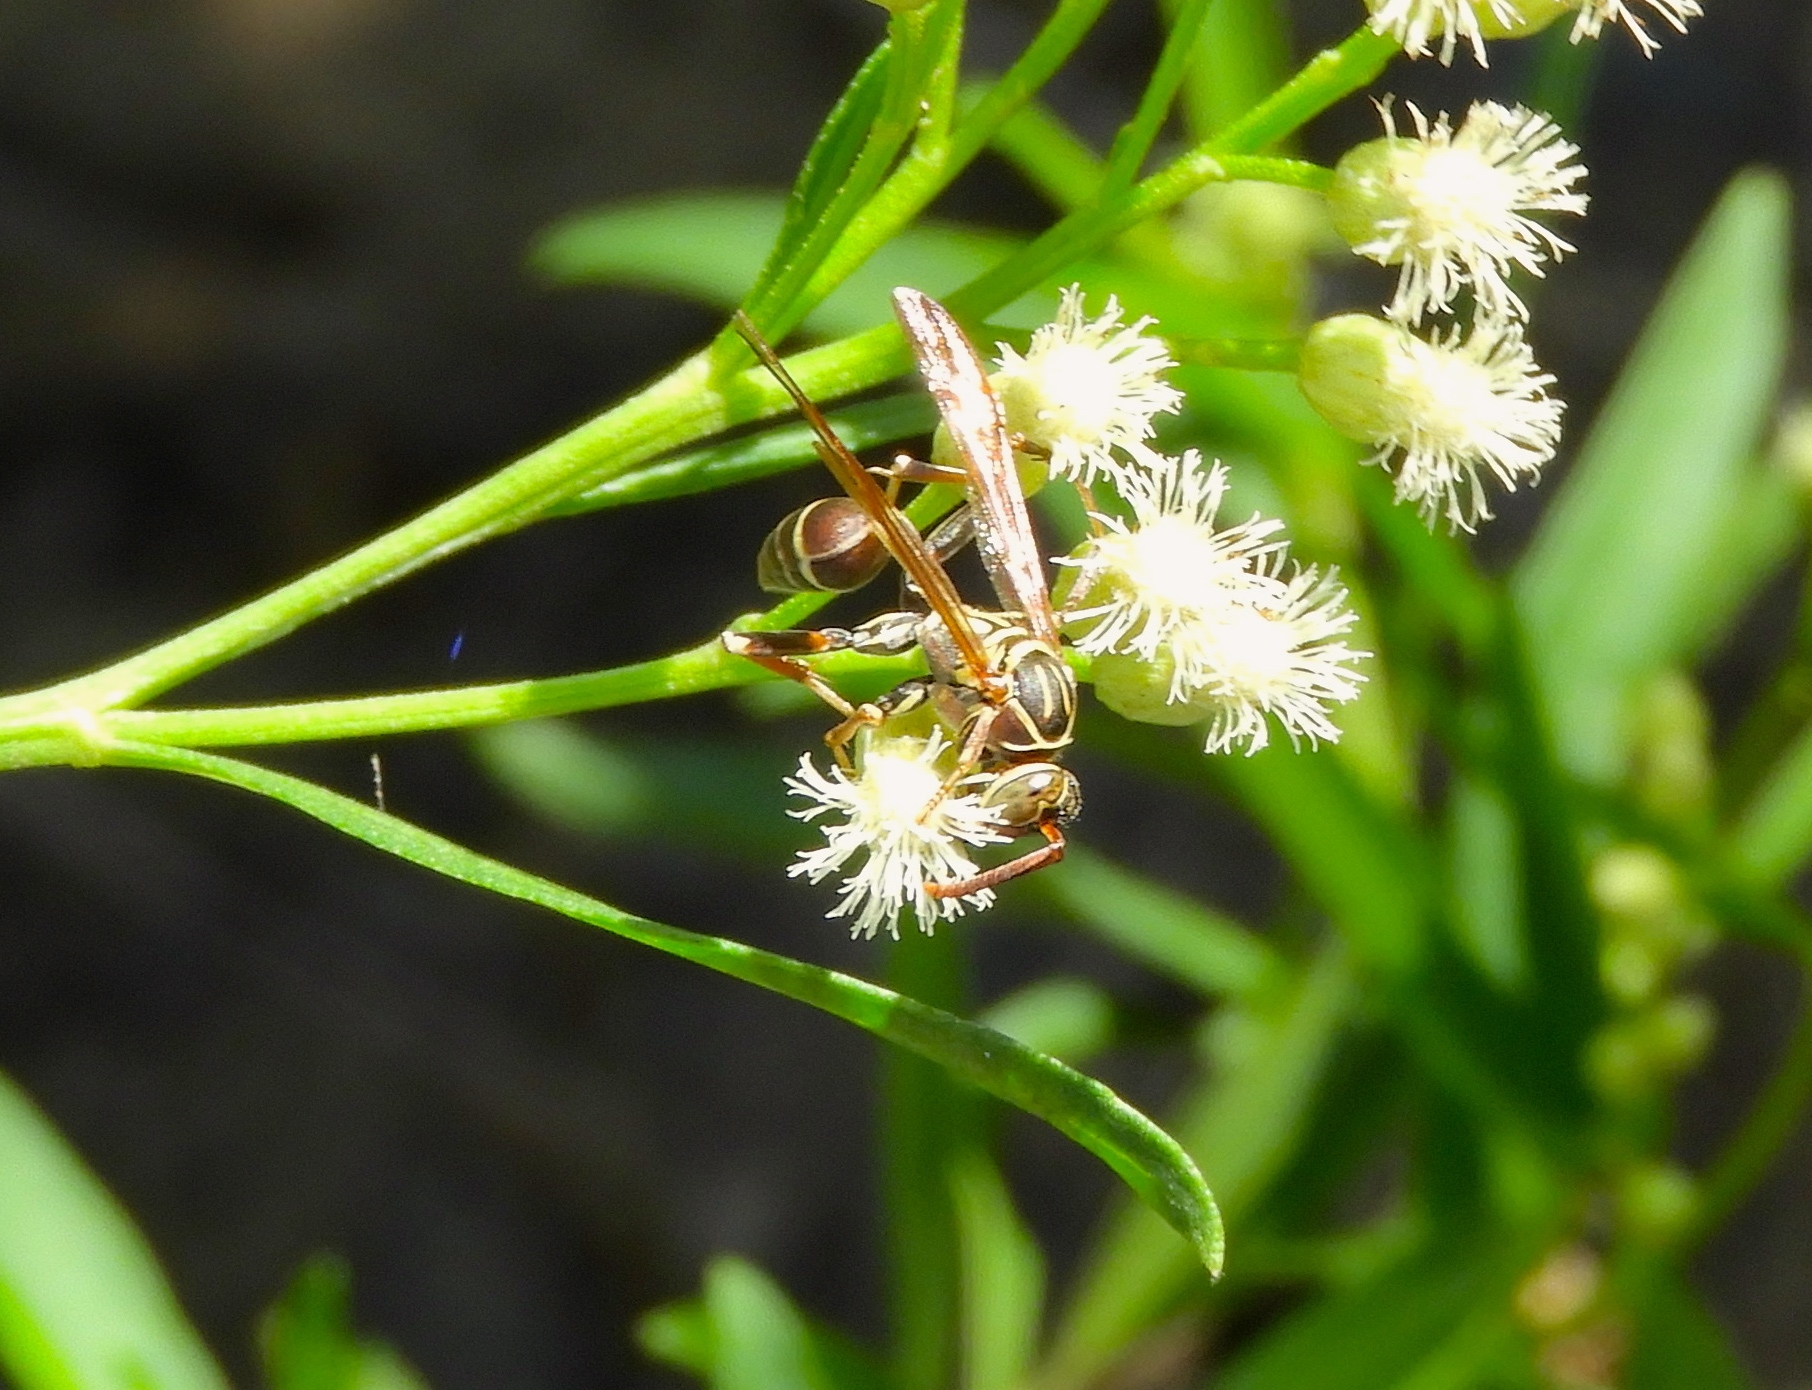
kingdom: Animalia
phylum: Arthropoda
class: Insecta
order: Hymenoptera
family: Vespidae
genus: Mischocyttarus
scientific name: Mischocyttarus
